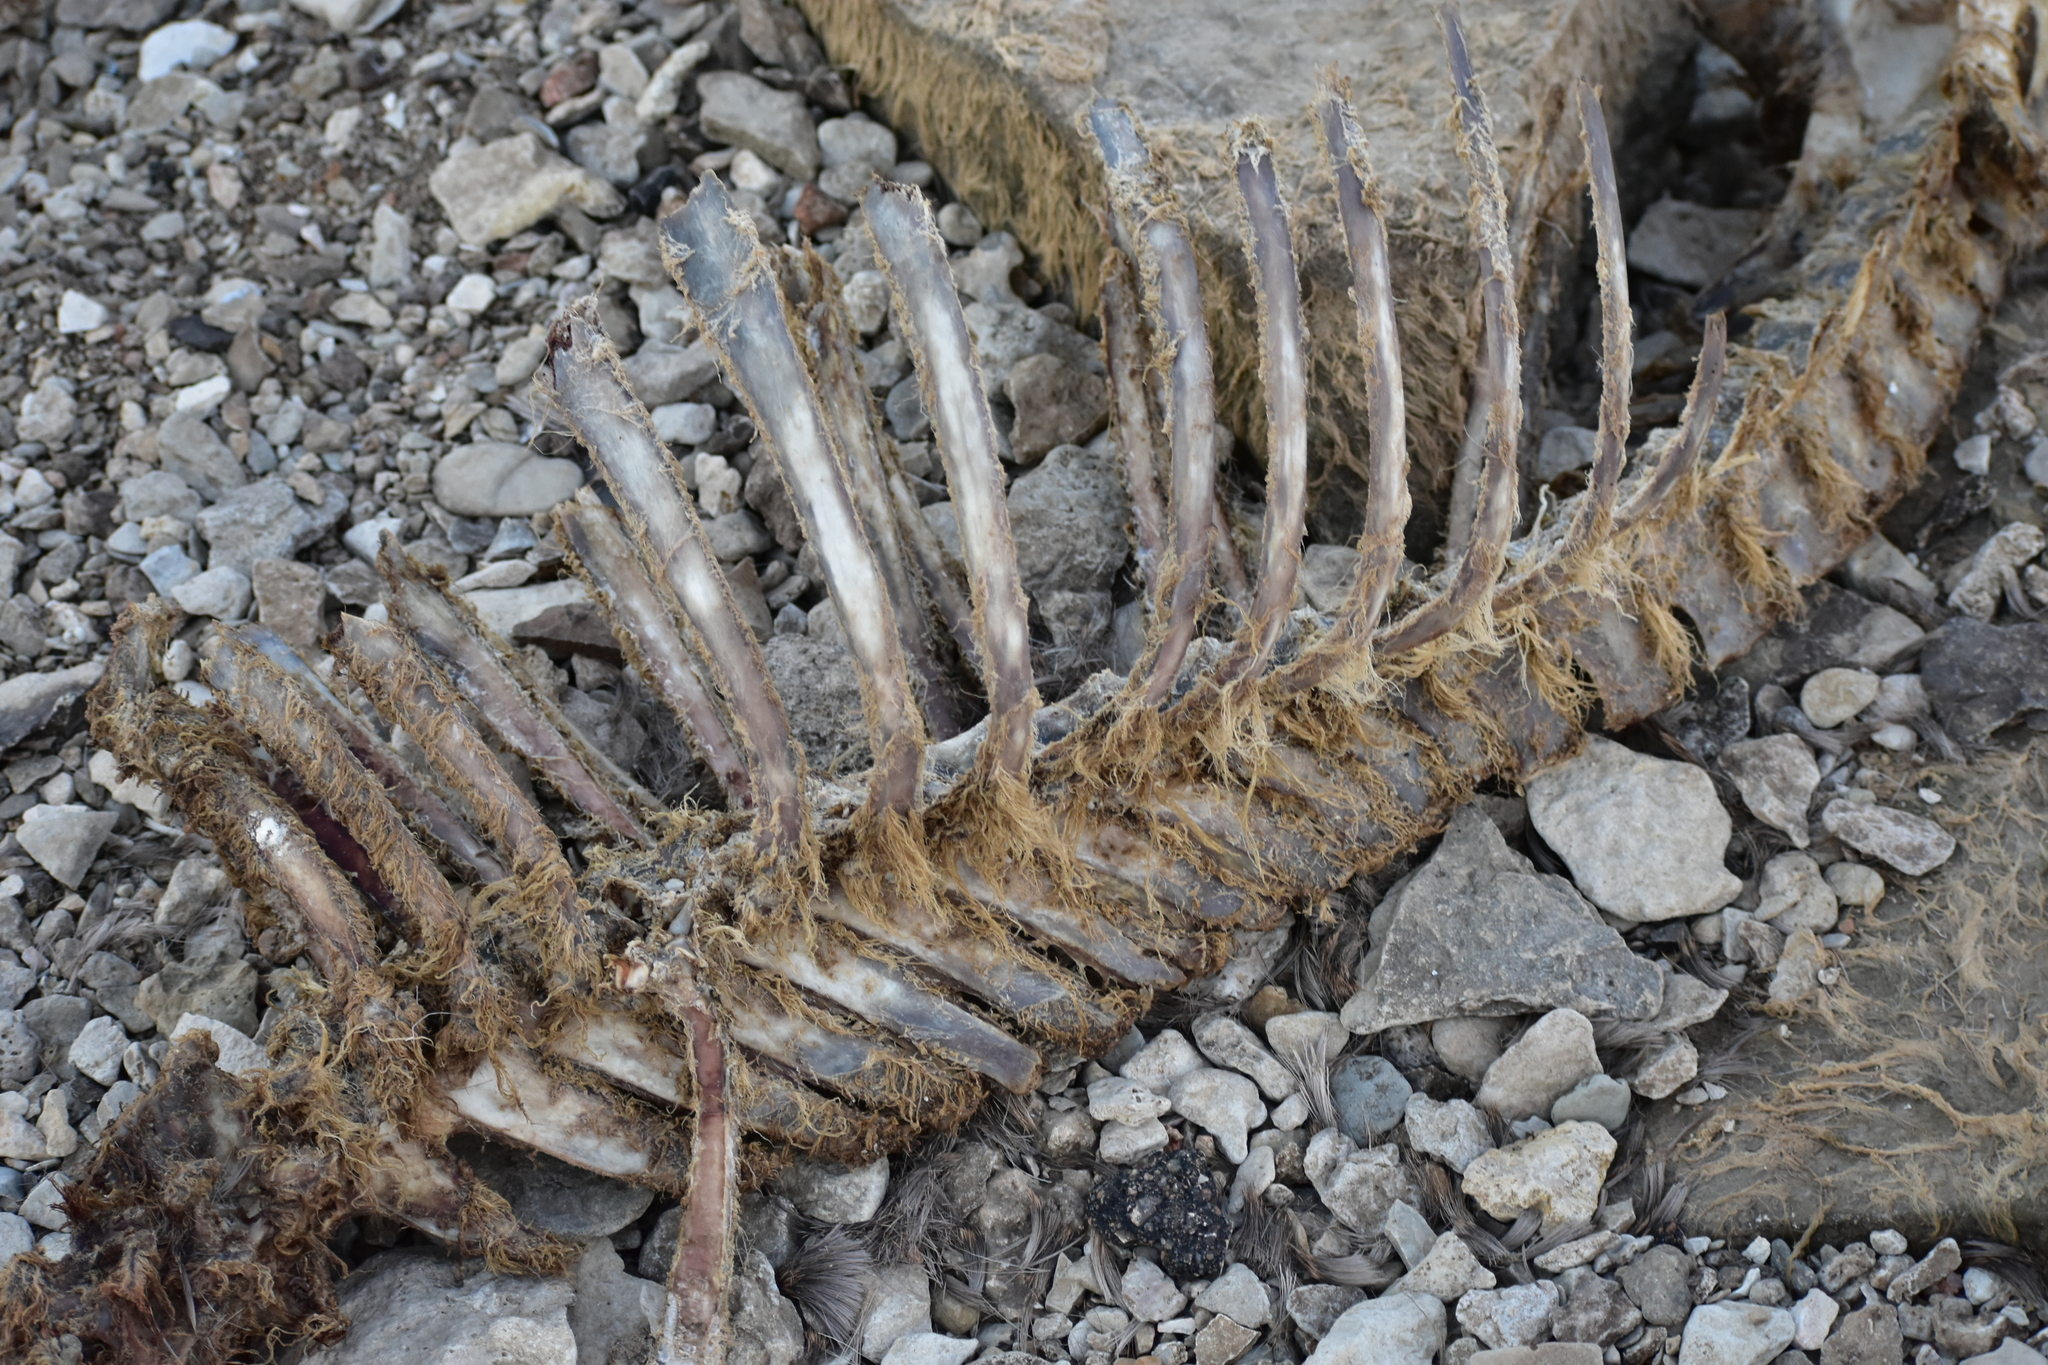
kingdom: Animalia
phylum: Chordata
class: Mammalia
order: Artiodactyla
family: Cervidae
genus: Odocoileus
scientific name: Odocoileus virginianus
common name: White-tailed deer
